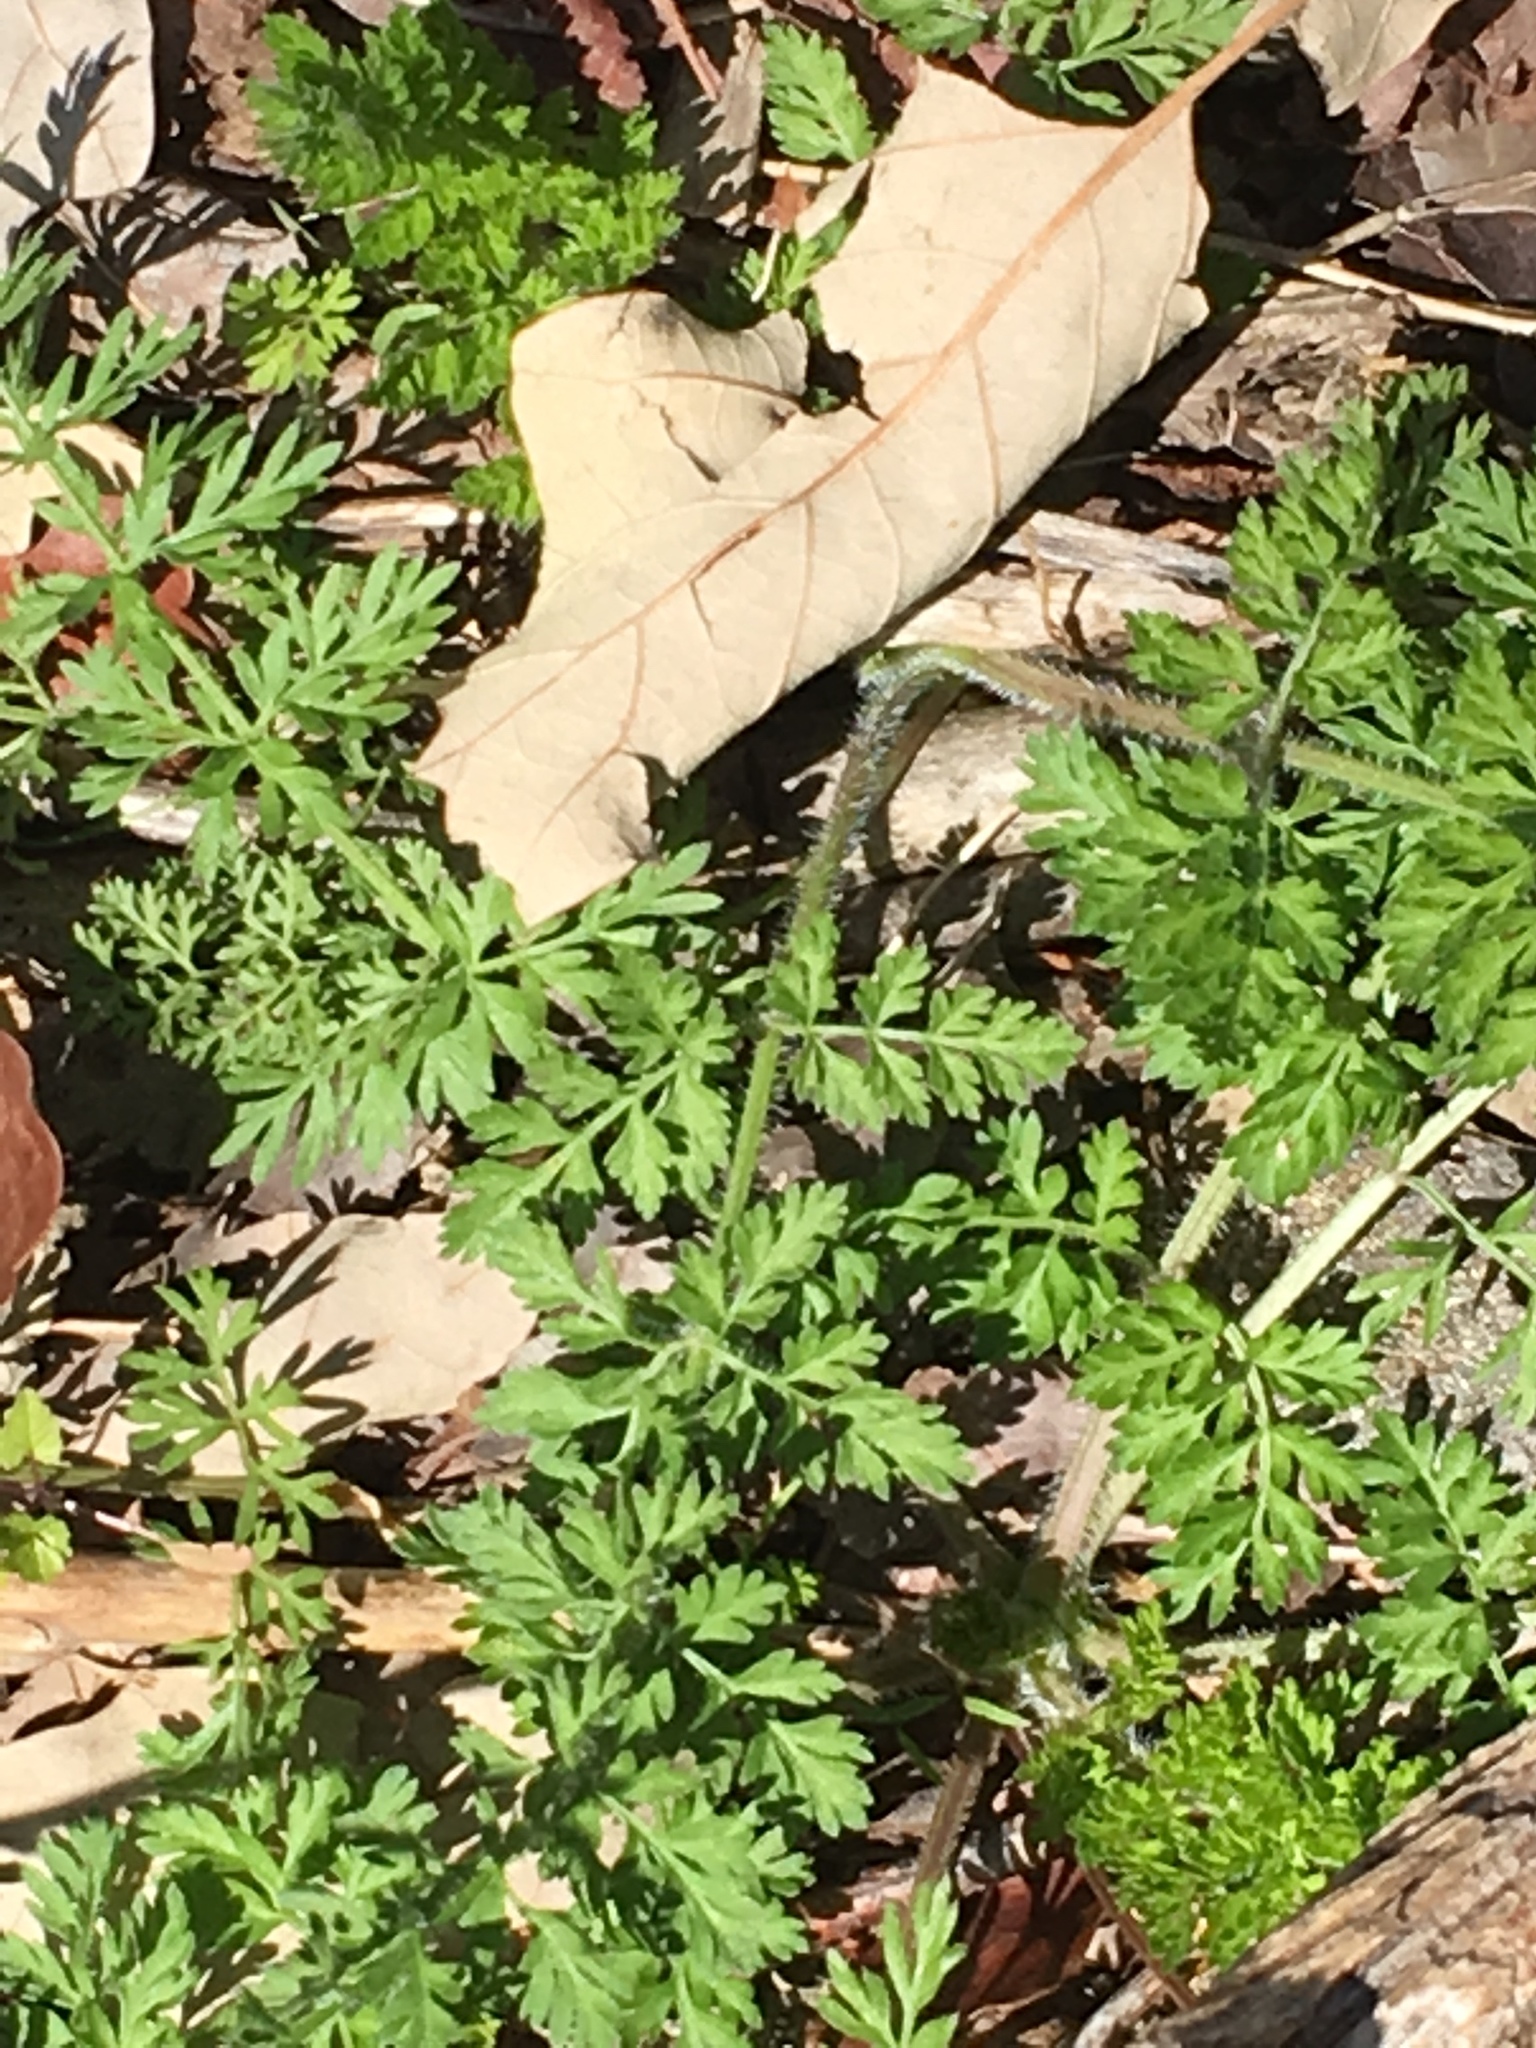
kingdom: Plantae
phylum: Tracheophyta
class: Magnoliopsida
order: Apiales
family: Apiaceae
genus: Daucus
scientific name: Daucus carota
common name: Wild carrot
